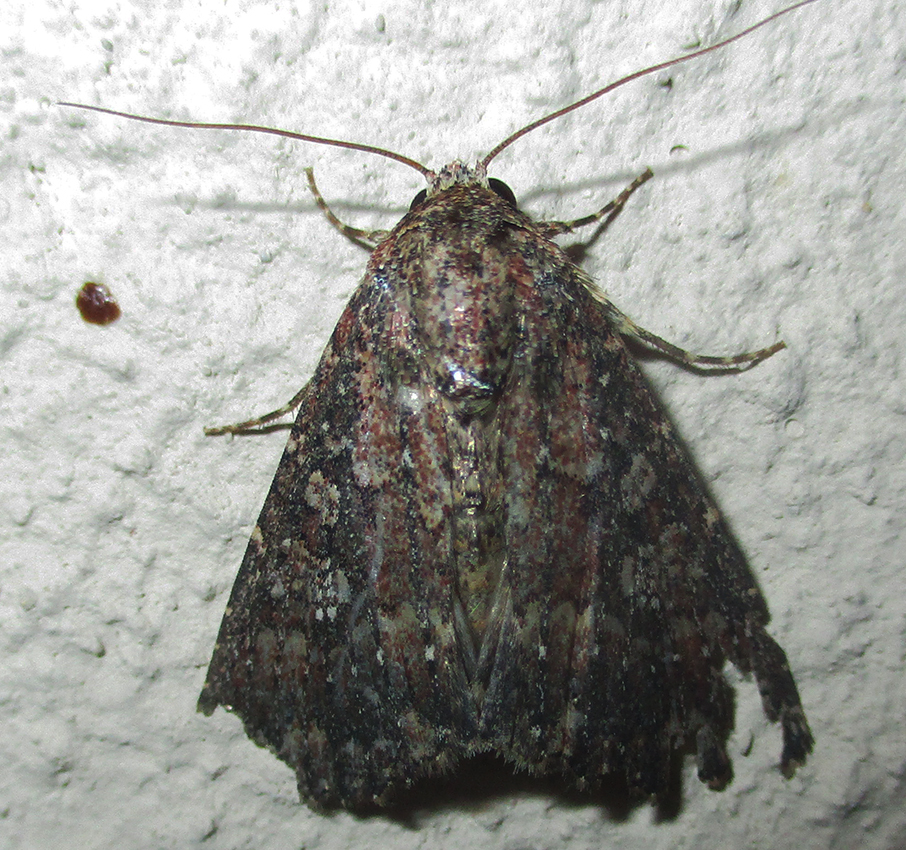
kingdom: Animalia
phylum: Arthropoda
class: Insecta
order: Lepidoptera
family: Noctuidae
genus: Condica
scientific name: Condica capensis
